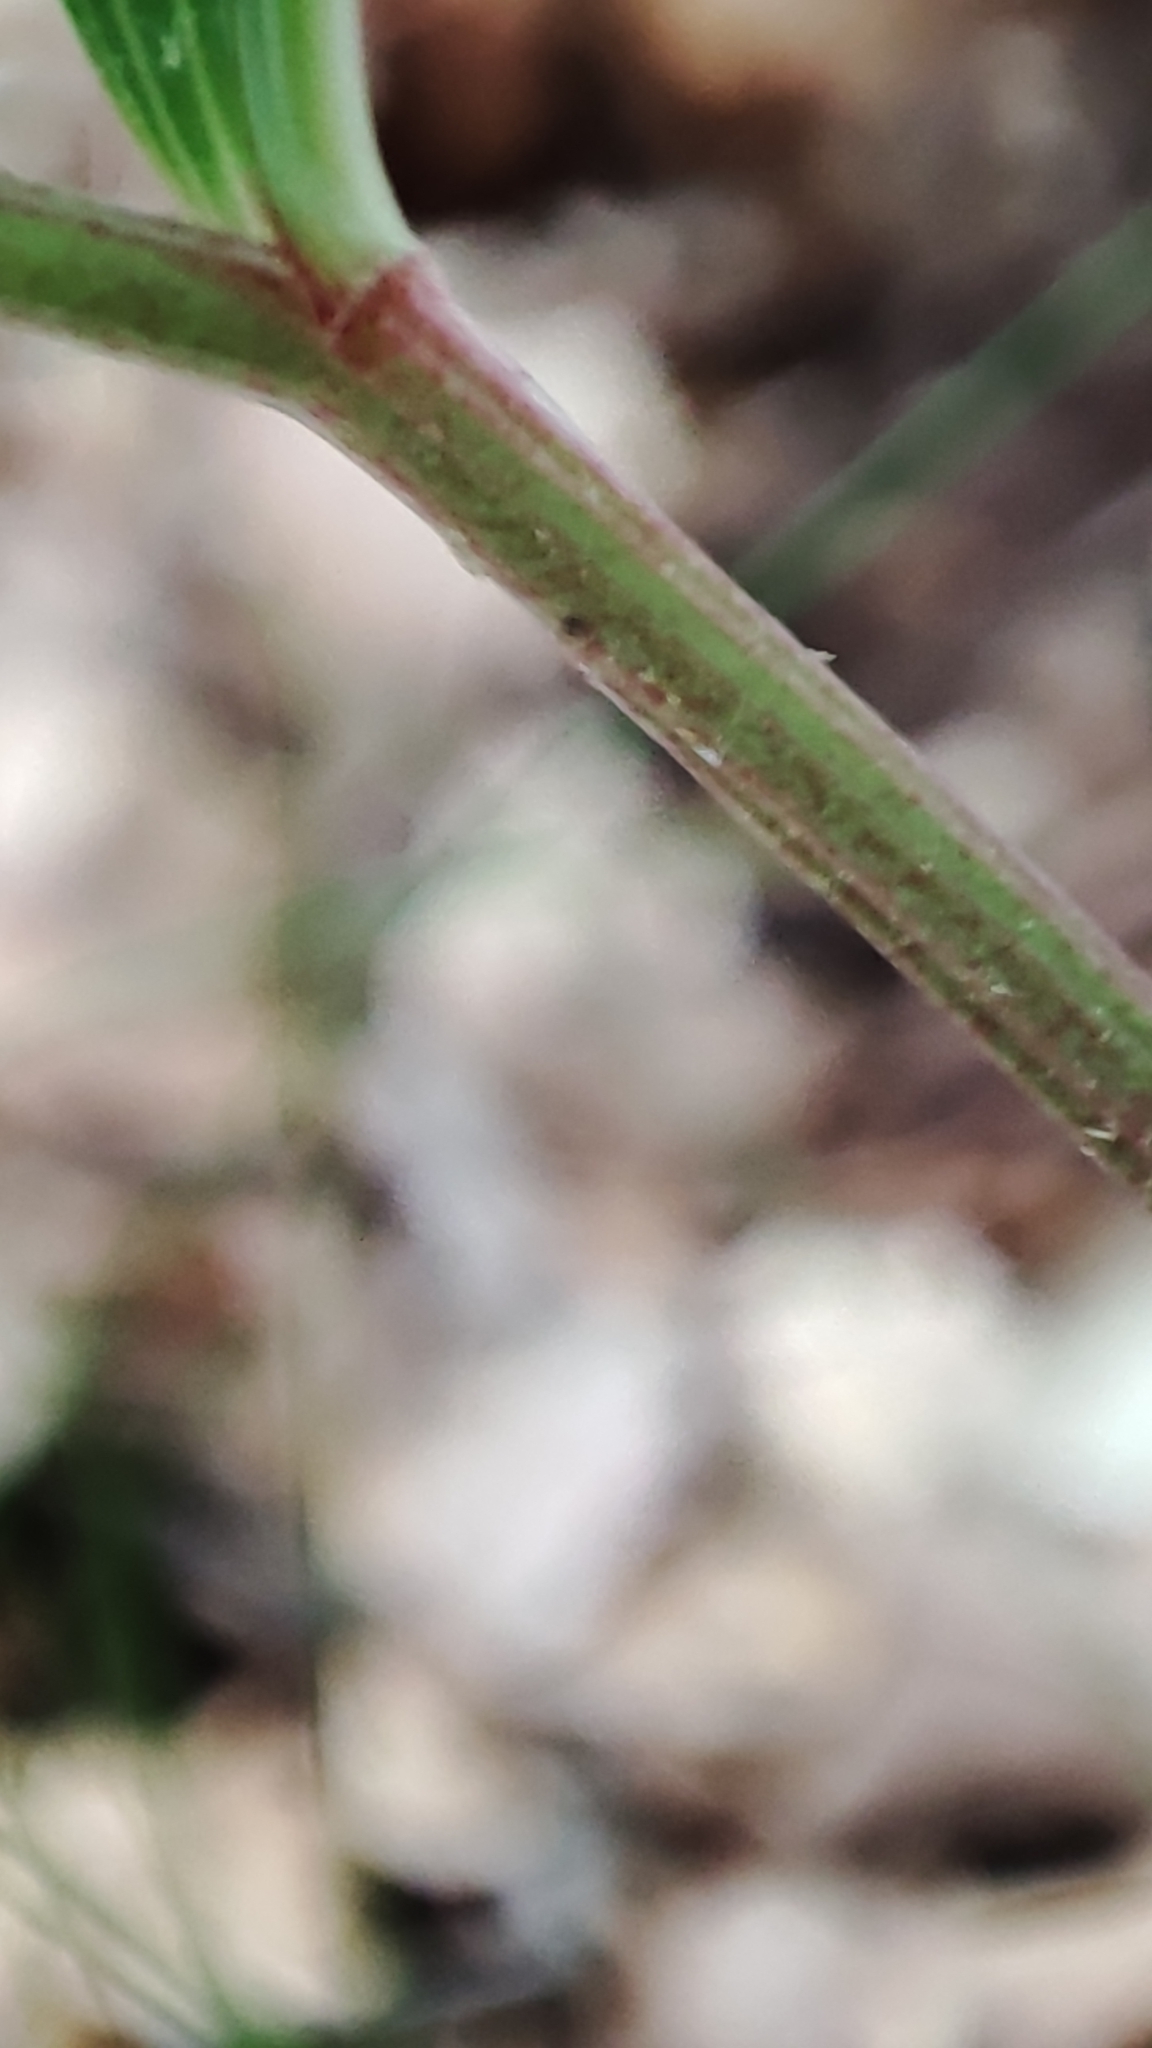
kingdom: Plantae
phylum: Tracheophyta
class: Liliopsida
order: Asparagales
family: Asparagaceae
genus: Polygonatum
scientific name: Polygonatum odoratum
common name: Angular solomon's-seal
